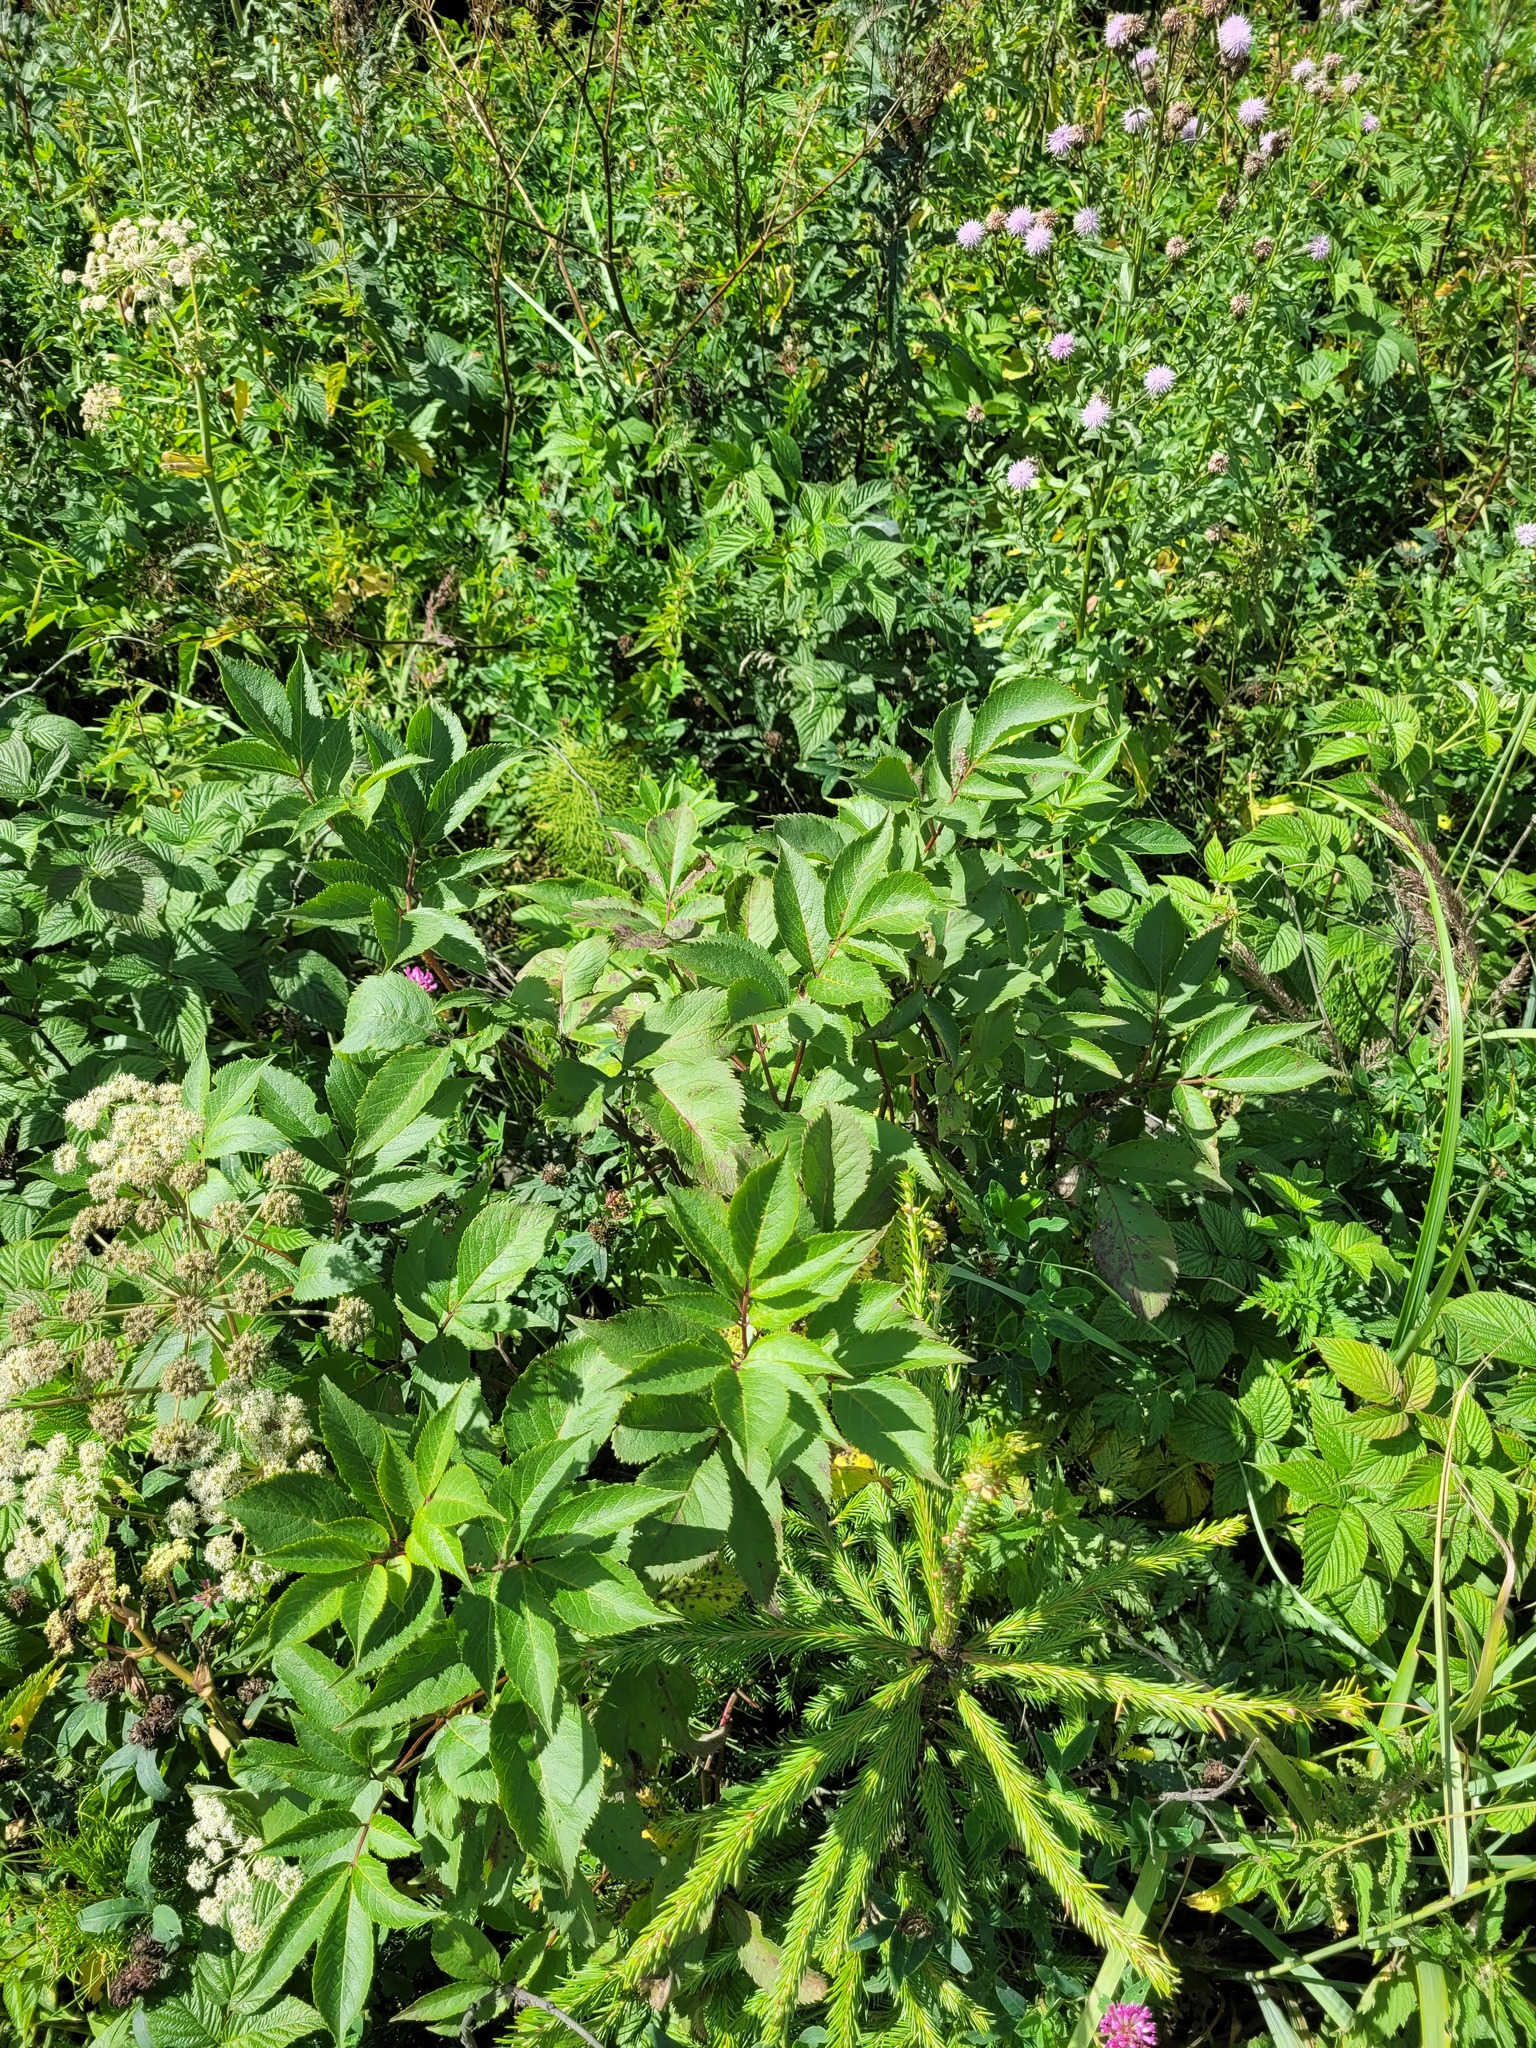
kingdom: Plantae
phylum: Tracheophyta
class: Magnoliopsida
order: Dipsacales
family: Viburnaceae
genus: Sambucus
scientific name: Sambucus racemosa
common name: Red-berried elder
